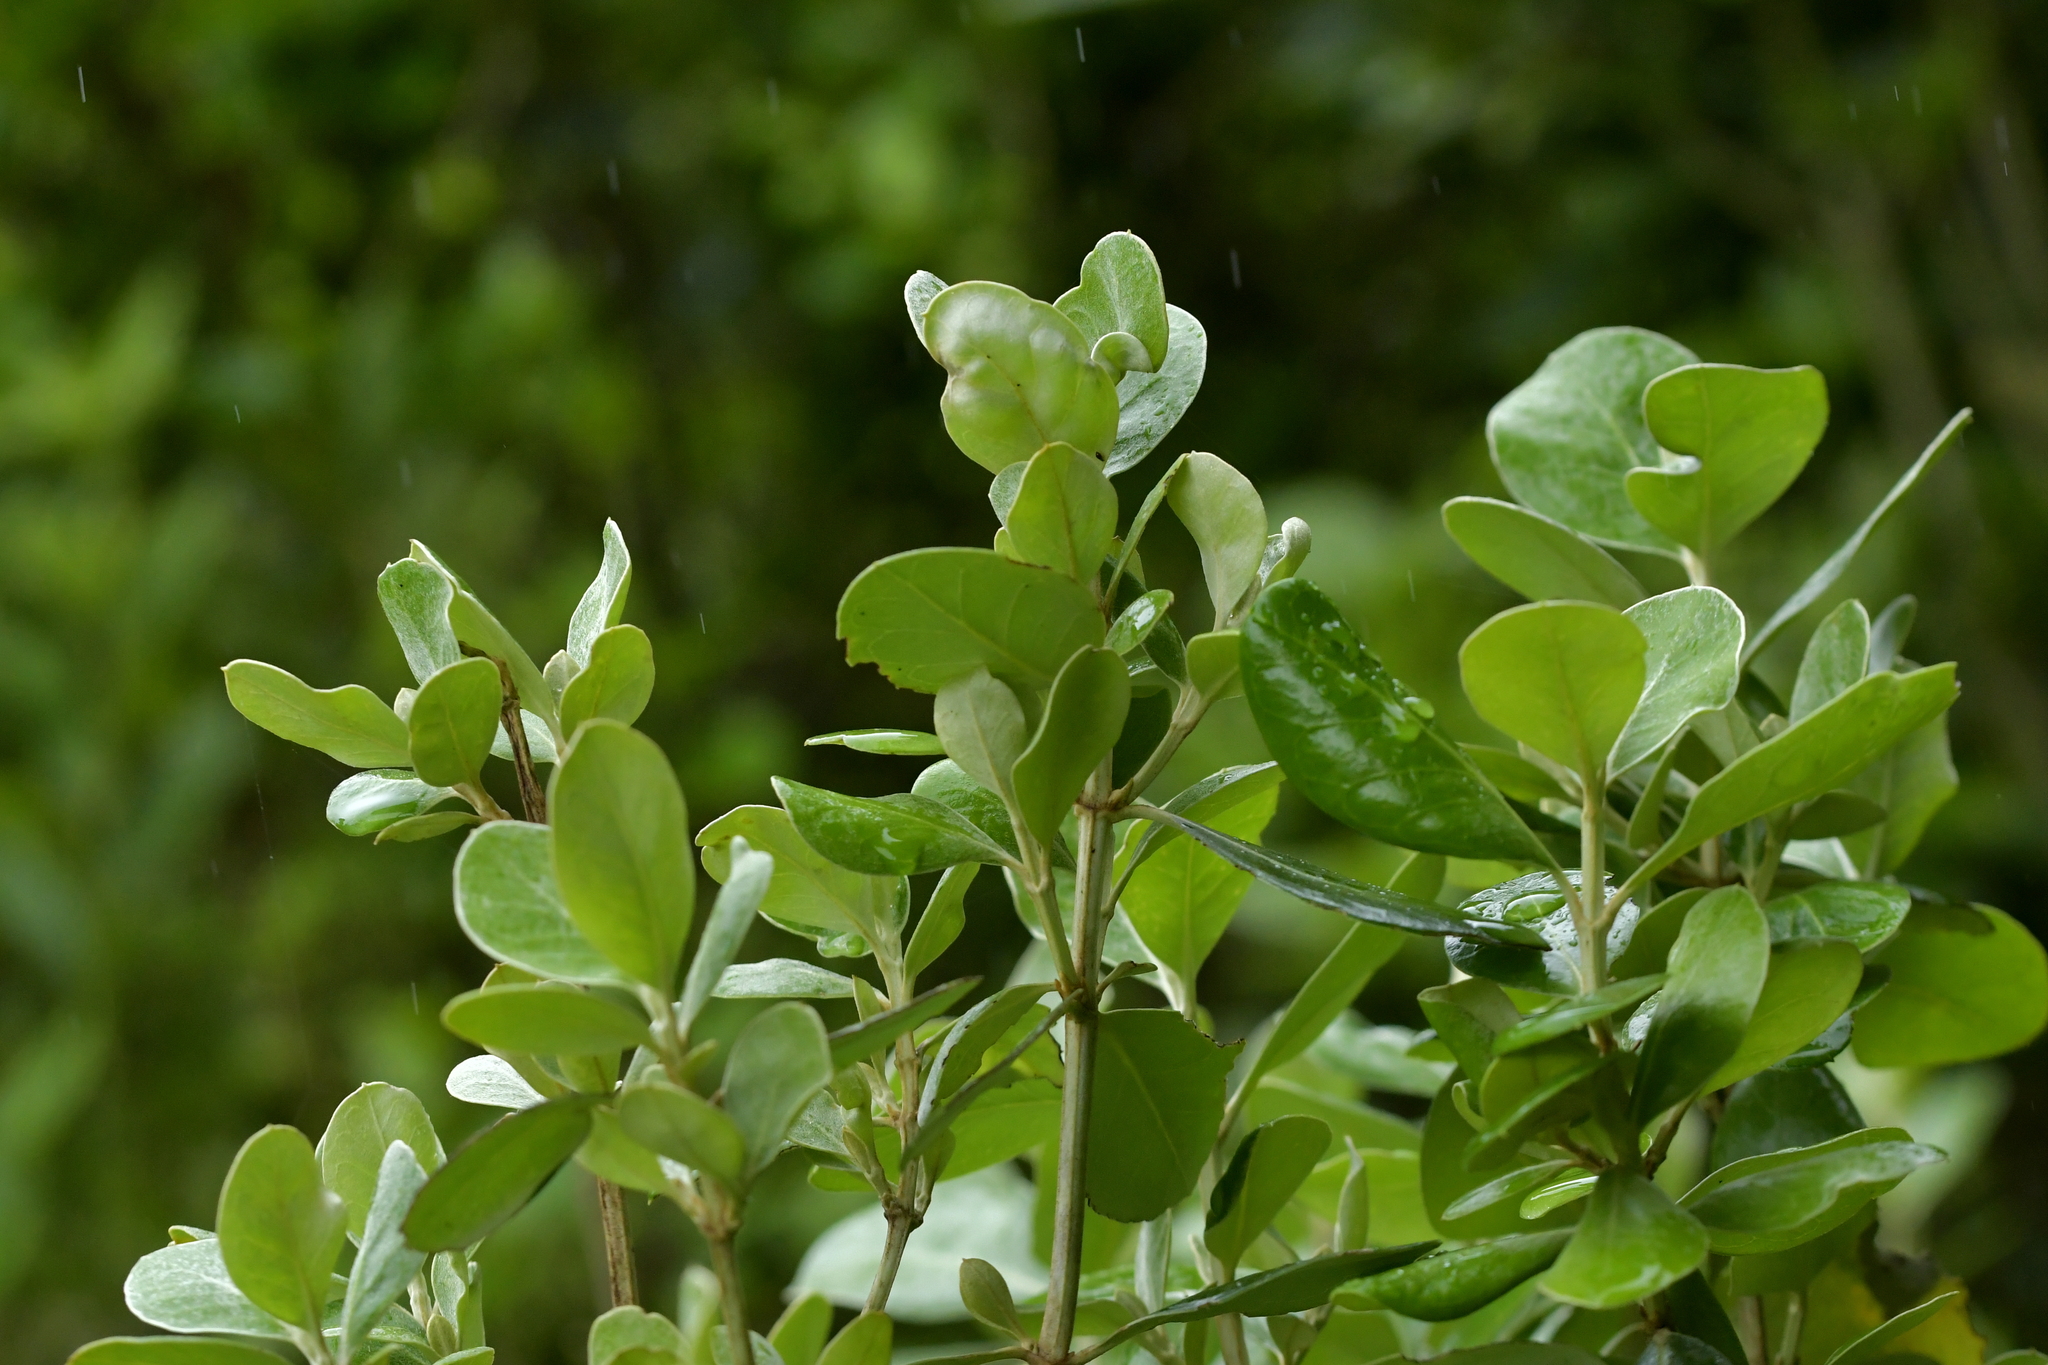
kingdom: Plantae
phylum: Tracheophyta
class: Magnoliopsida
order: Asterales
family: Asteraceae
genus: Olearia
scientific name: Olearia traversiorum
